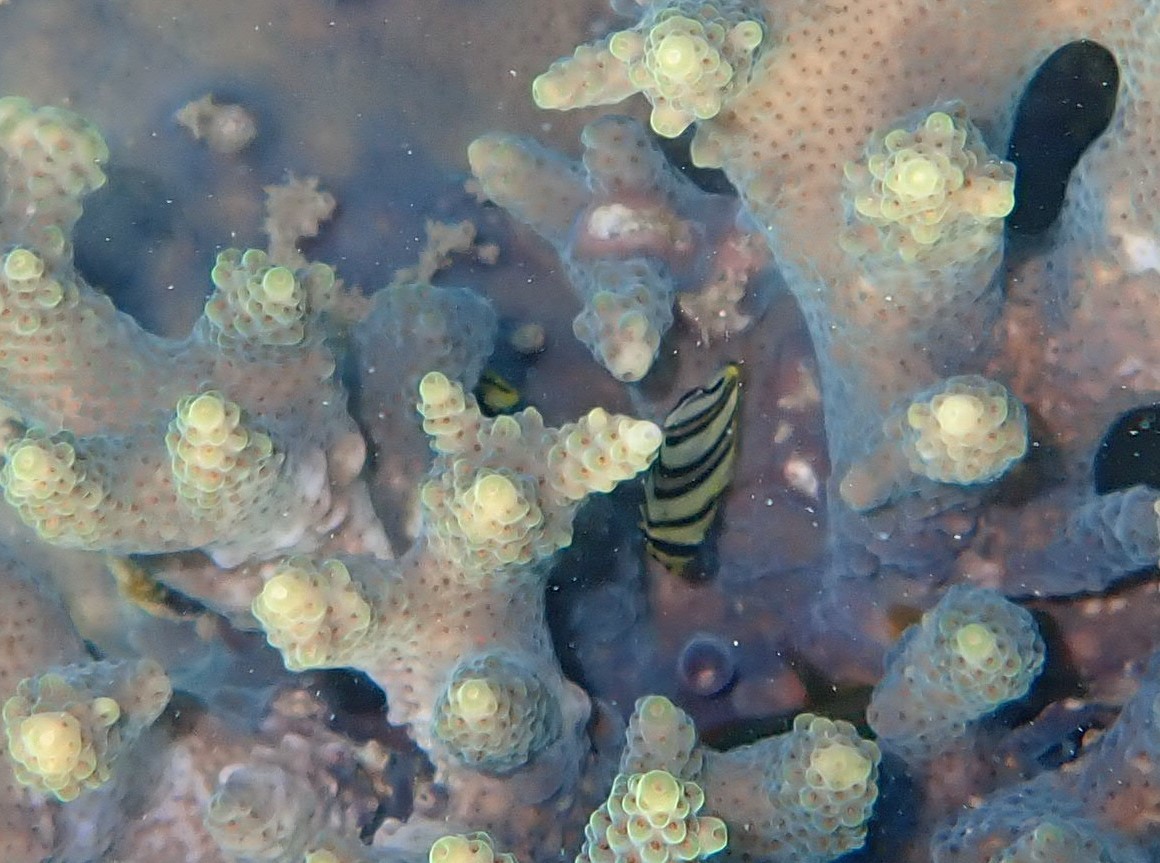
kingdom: Animalia
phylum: Chordata
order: Perciformes
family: Chaetodontidae
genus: Chaetodon
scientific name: Chaetodon octofasciatus
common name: Eightband butterflyfish
